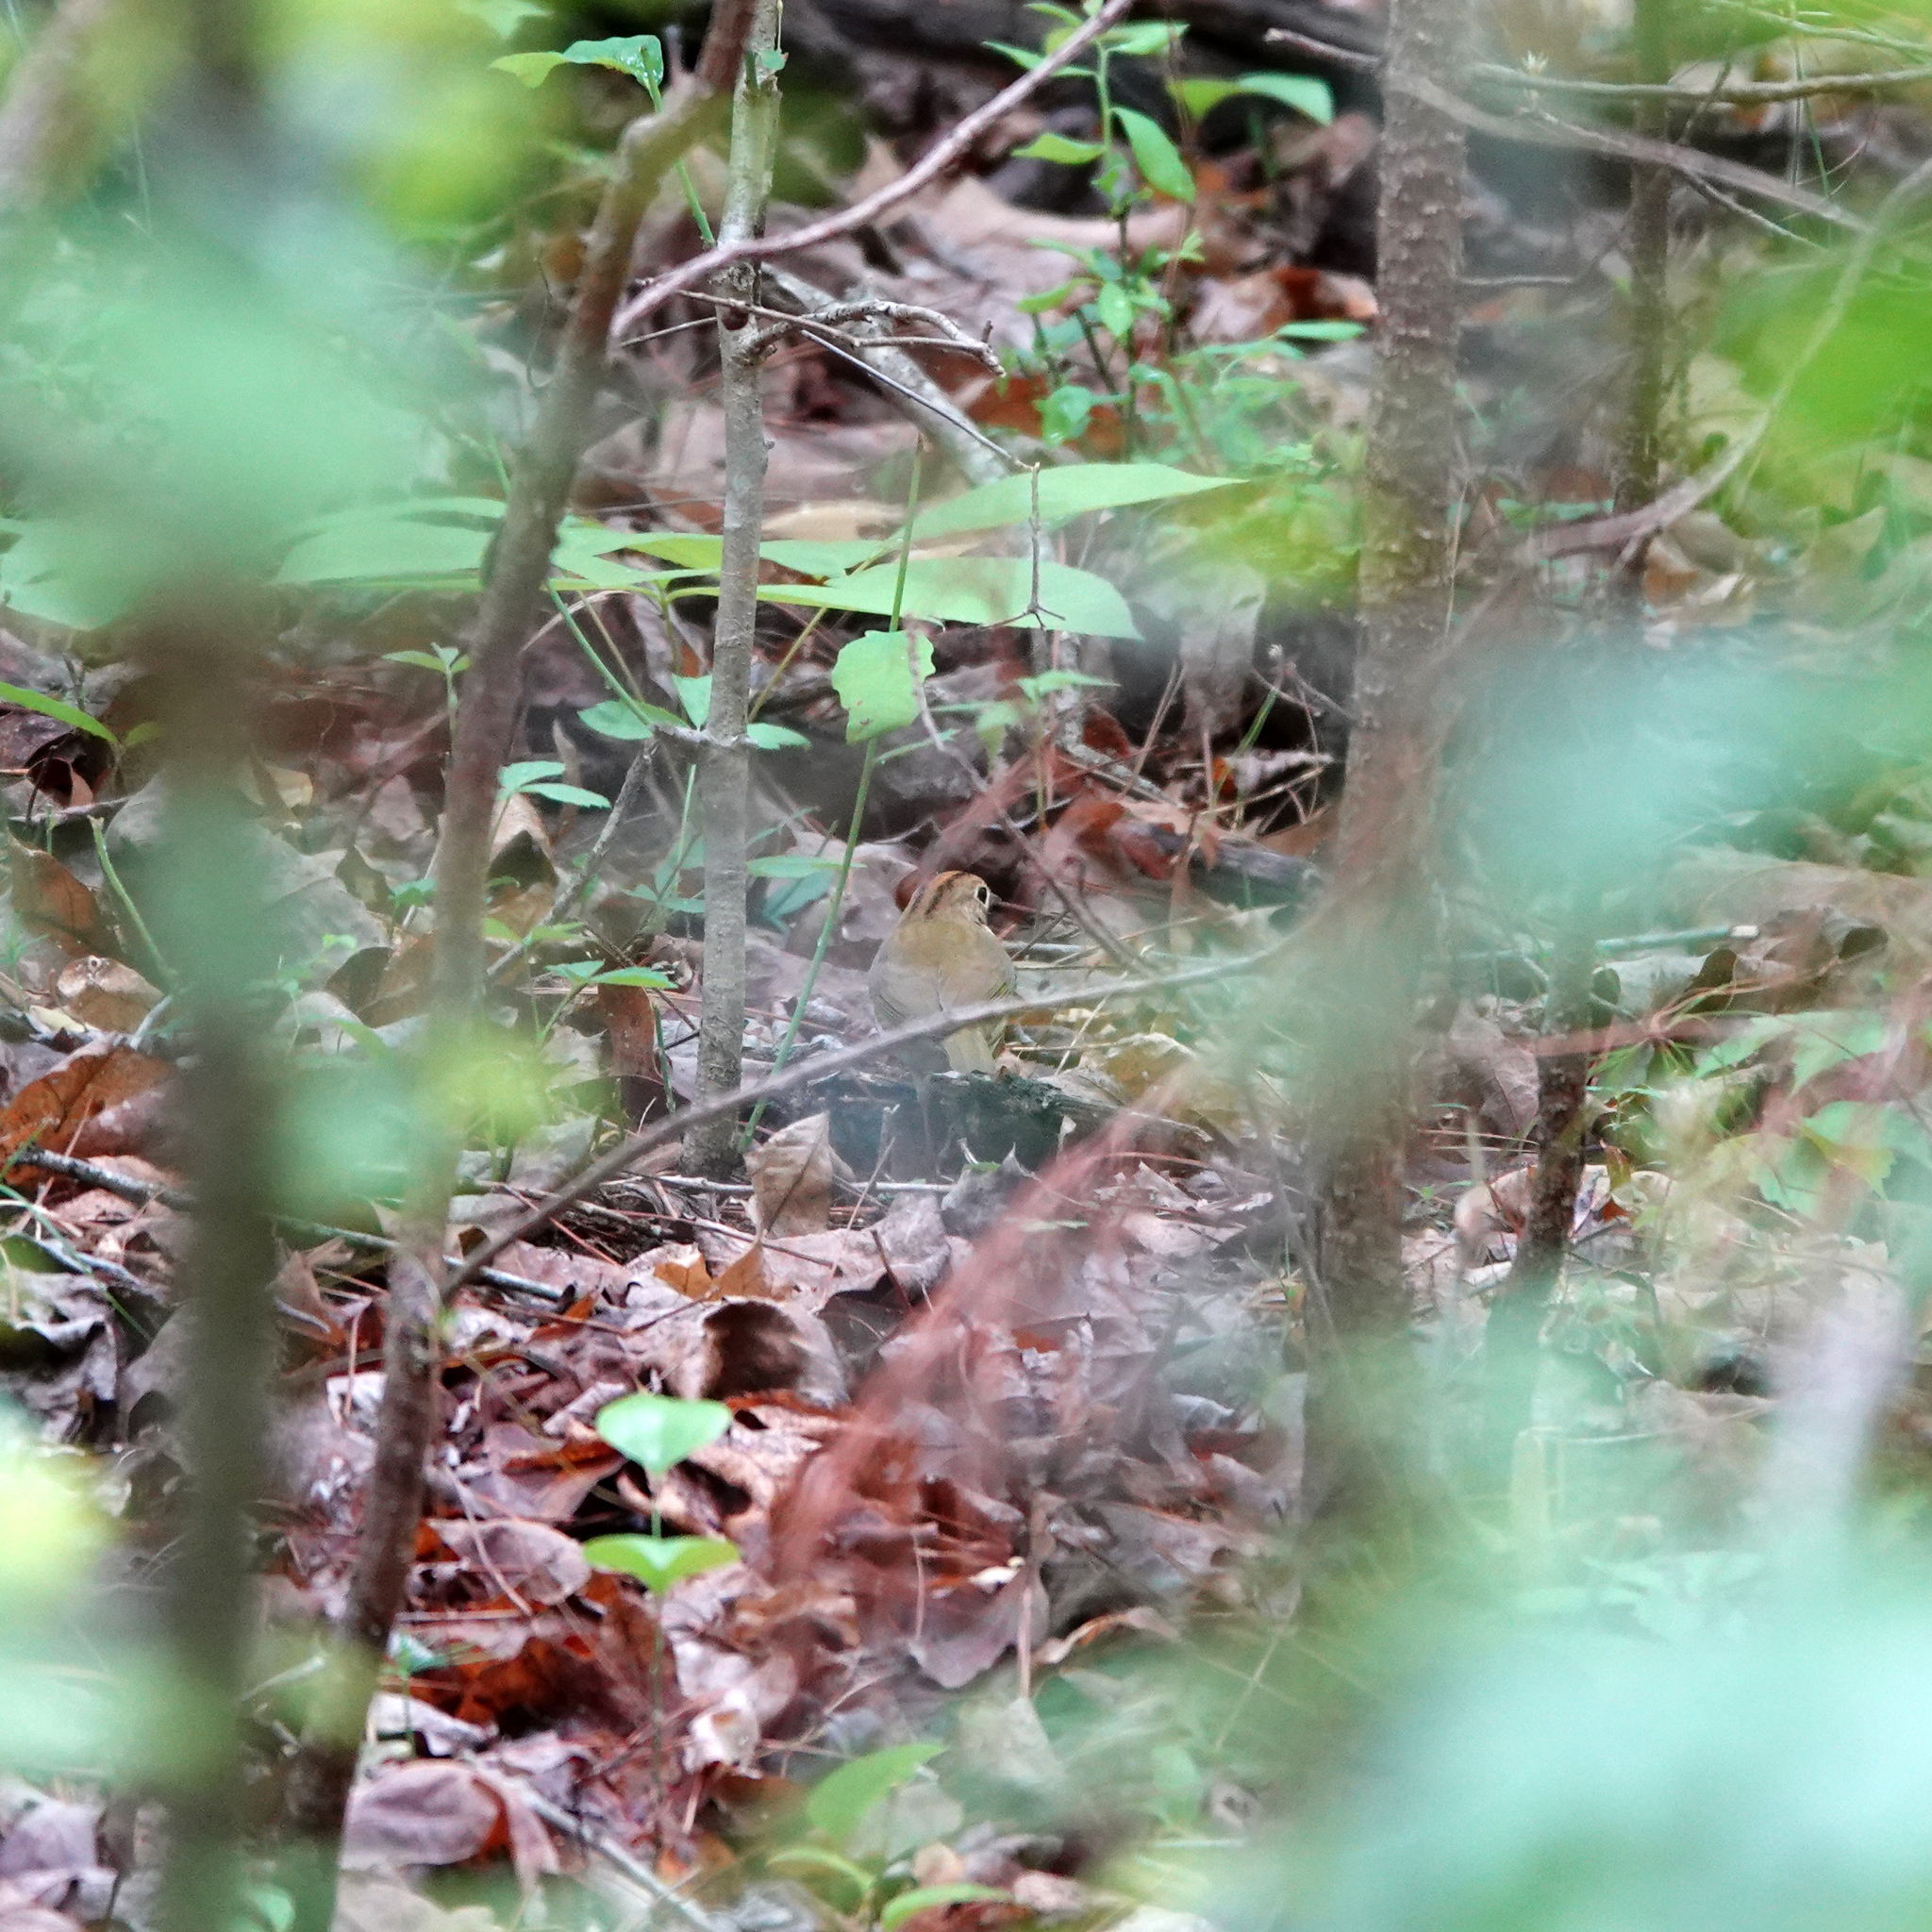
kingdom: Animalia
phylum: Chordata
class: Aves
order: Passeriformes
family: Parulidae
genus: Seiurus
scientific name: Seiurus aurocapilla
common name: Ovenbird
